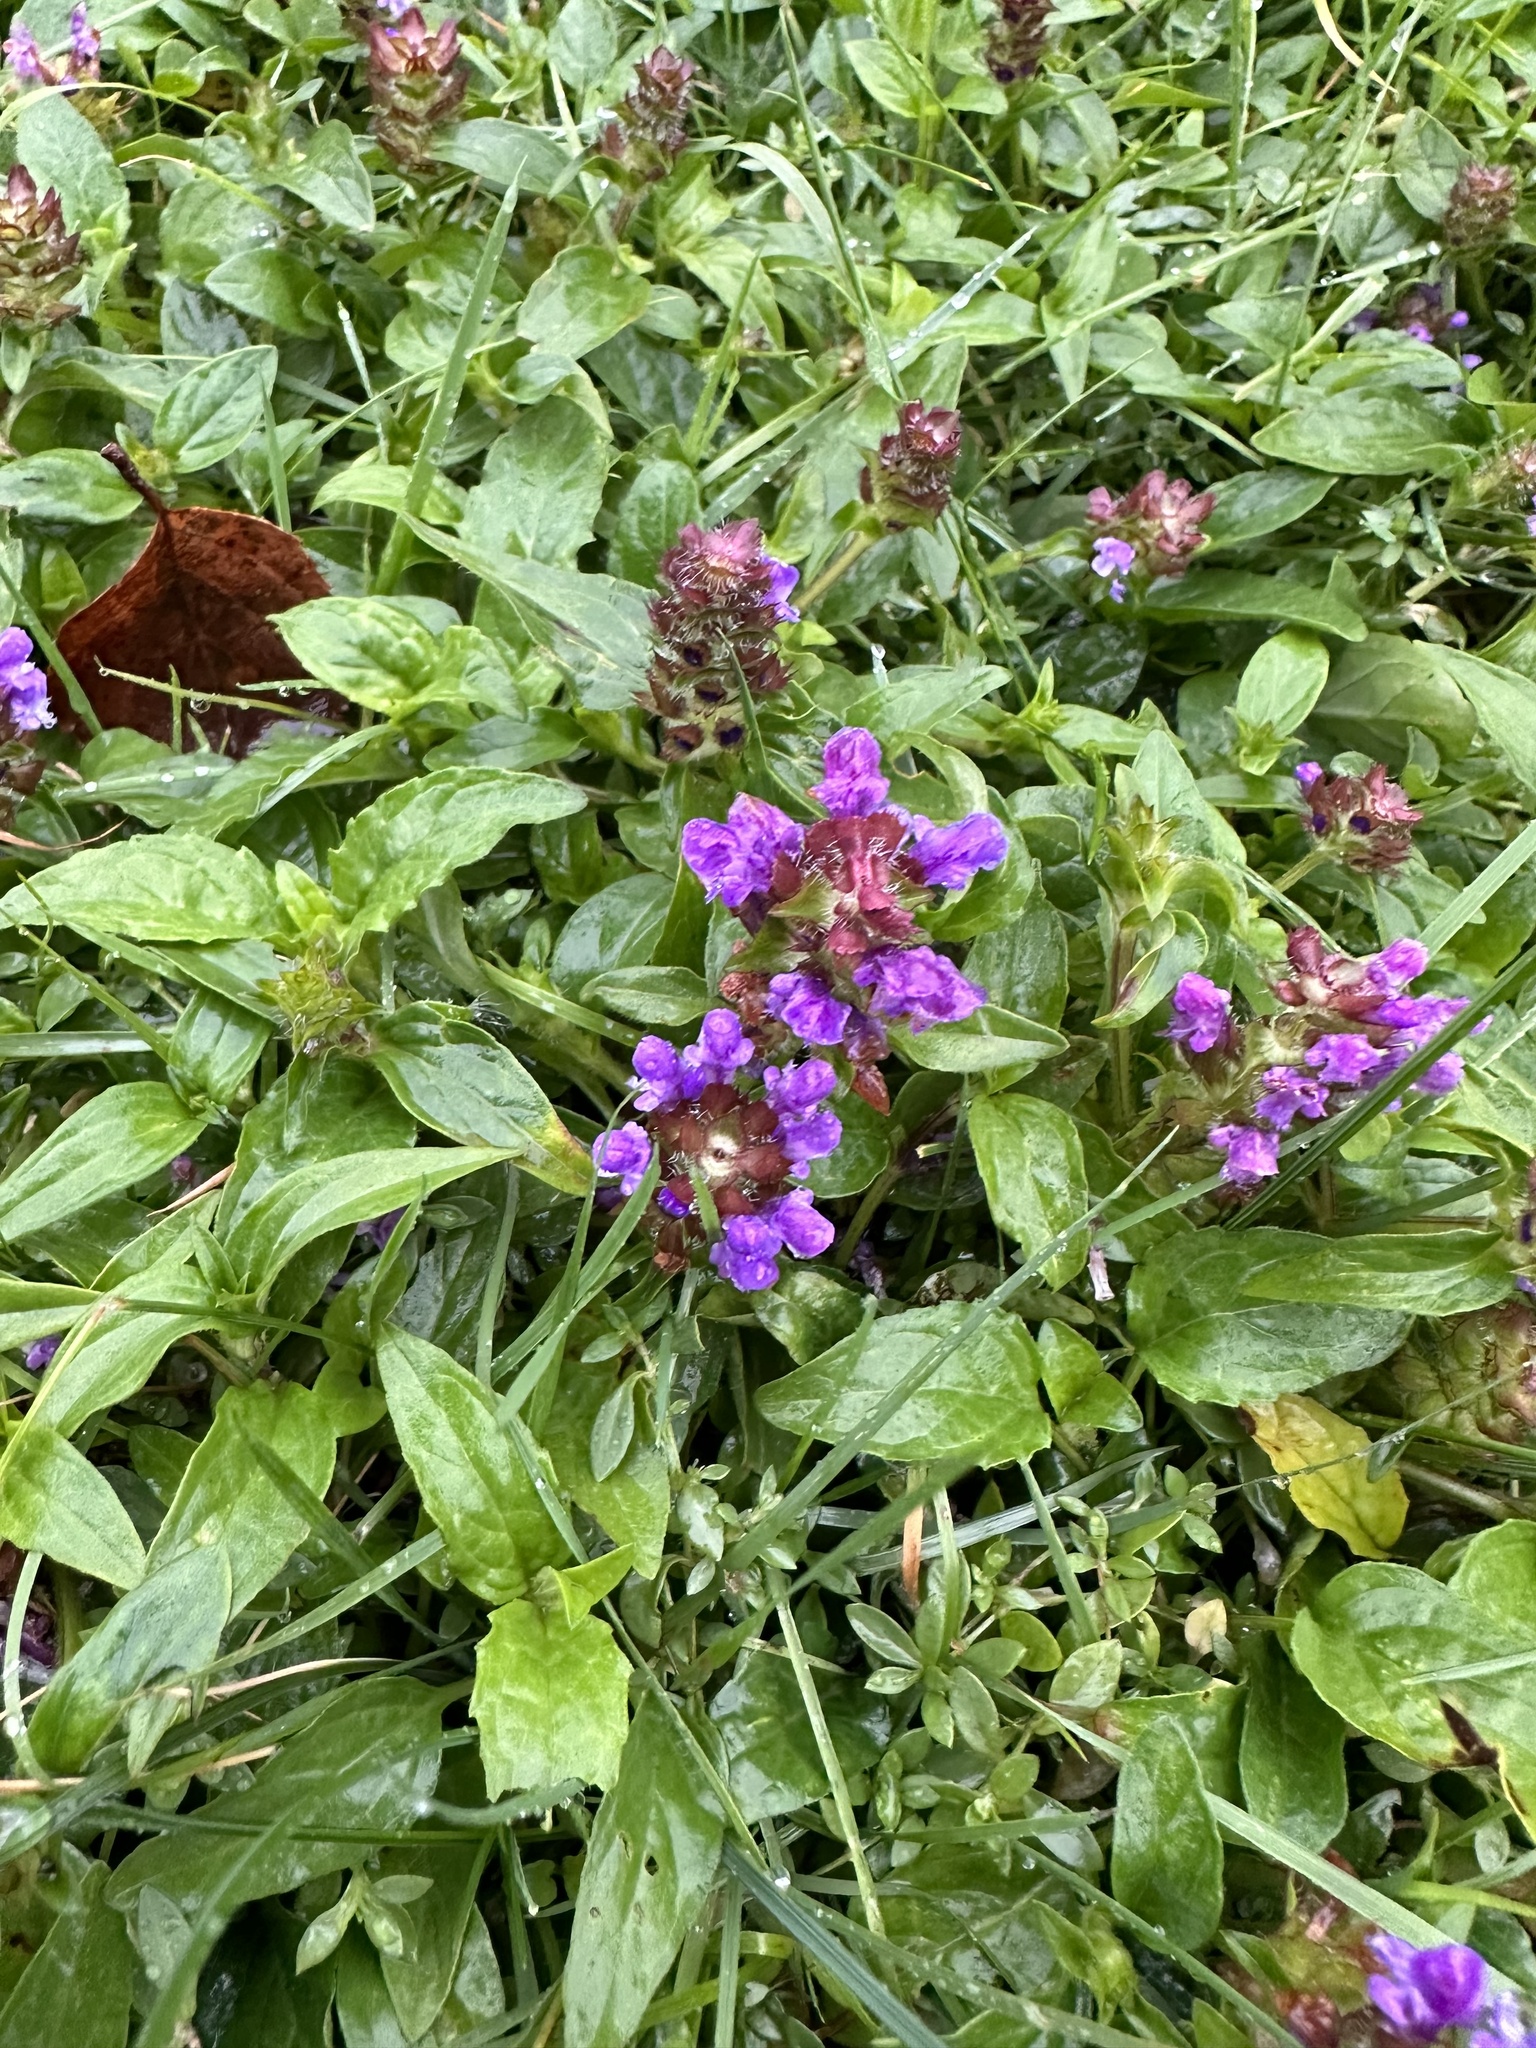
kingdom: Plantae
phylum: Tracheophyta
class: Magnoliopsida
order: Lamiales
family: Lamiaceae
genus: Prunella
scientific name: Prunella vulgaris
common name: Heal-all
